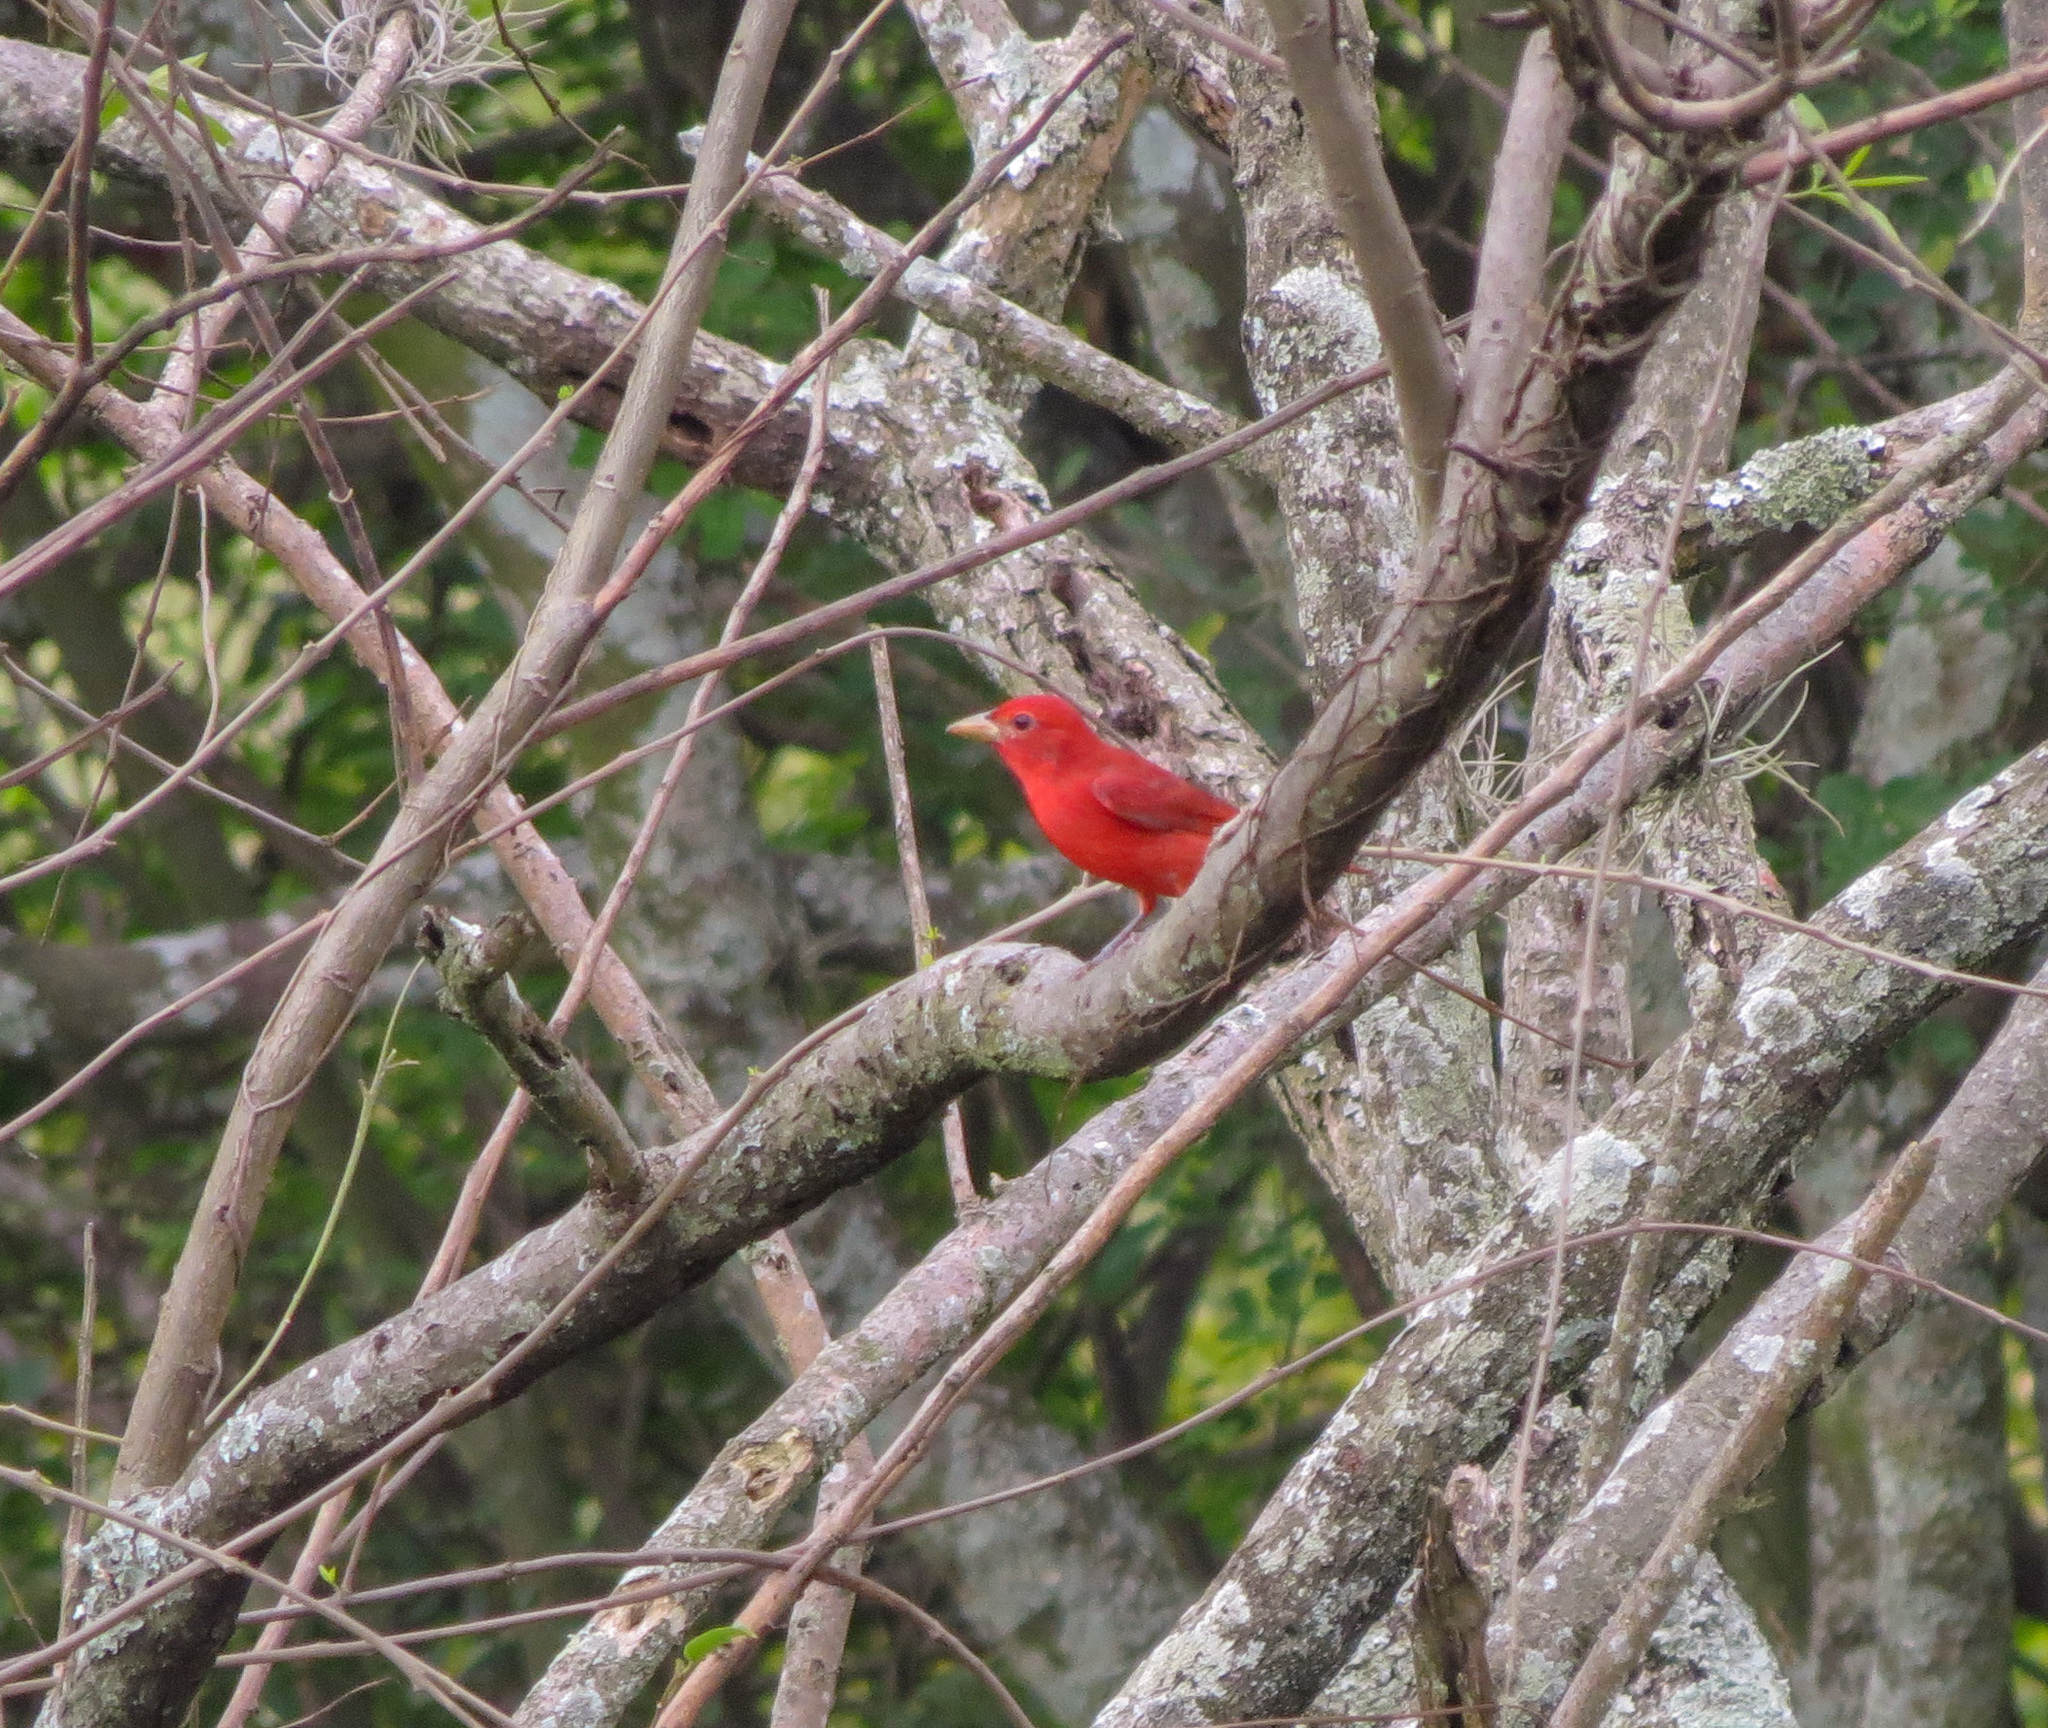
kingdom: Animalia
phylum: Chordata
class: Aves
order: Passeriformes
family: Cardinalidae
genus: Piranga
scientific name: Piranga rubra
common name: Summer tanager
